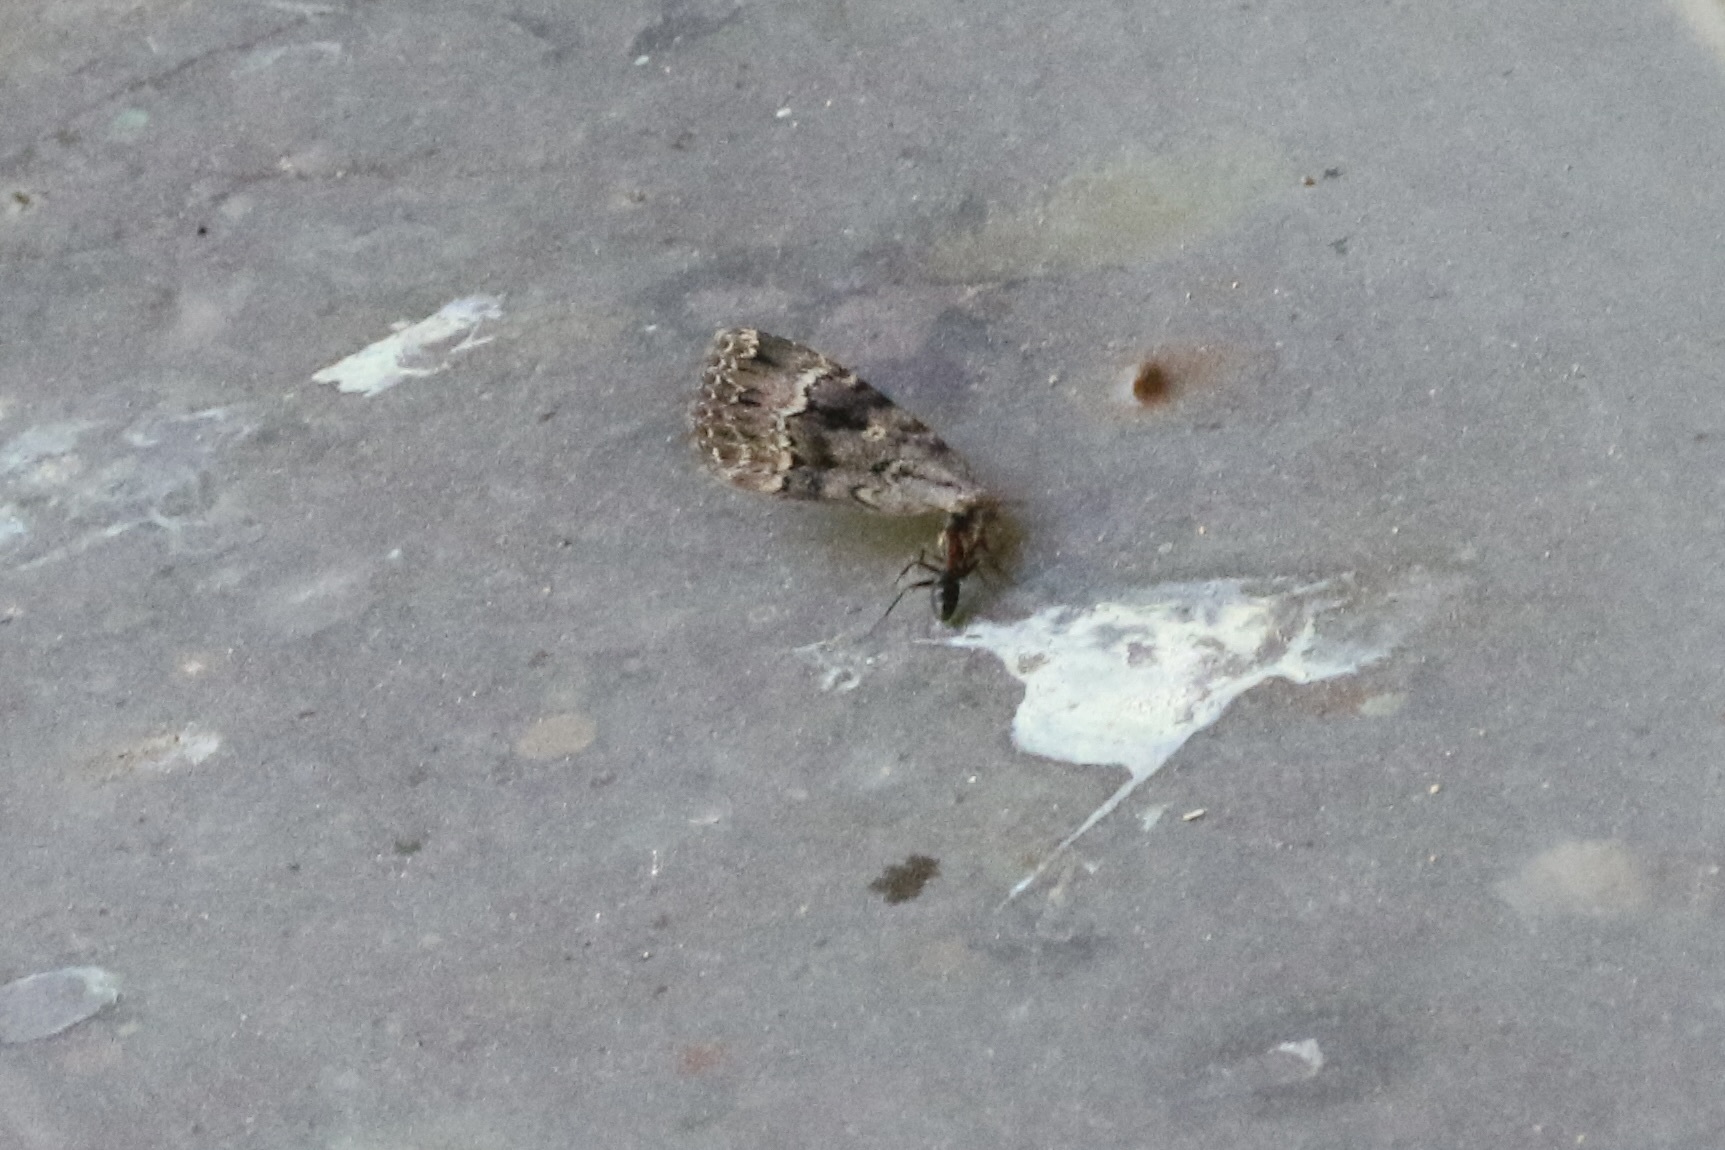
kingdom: Animalia
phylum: Arthropoda
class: Insecta
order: Lepidoptera
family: Noctuidae
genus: Amphipyra
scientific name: Amphipyra berbera
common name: Svensson's copper underwing
